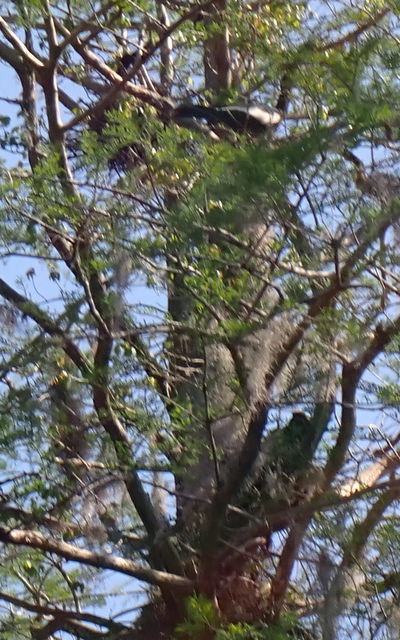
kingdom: Animalia
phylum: Chordata
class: Aves
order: Suliformes
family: Anhingidae
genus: Anhinga
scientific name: Anhinga anhinga
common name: Anhinga
